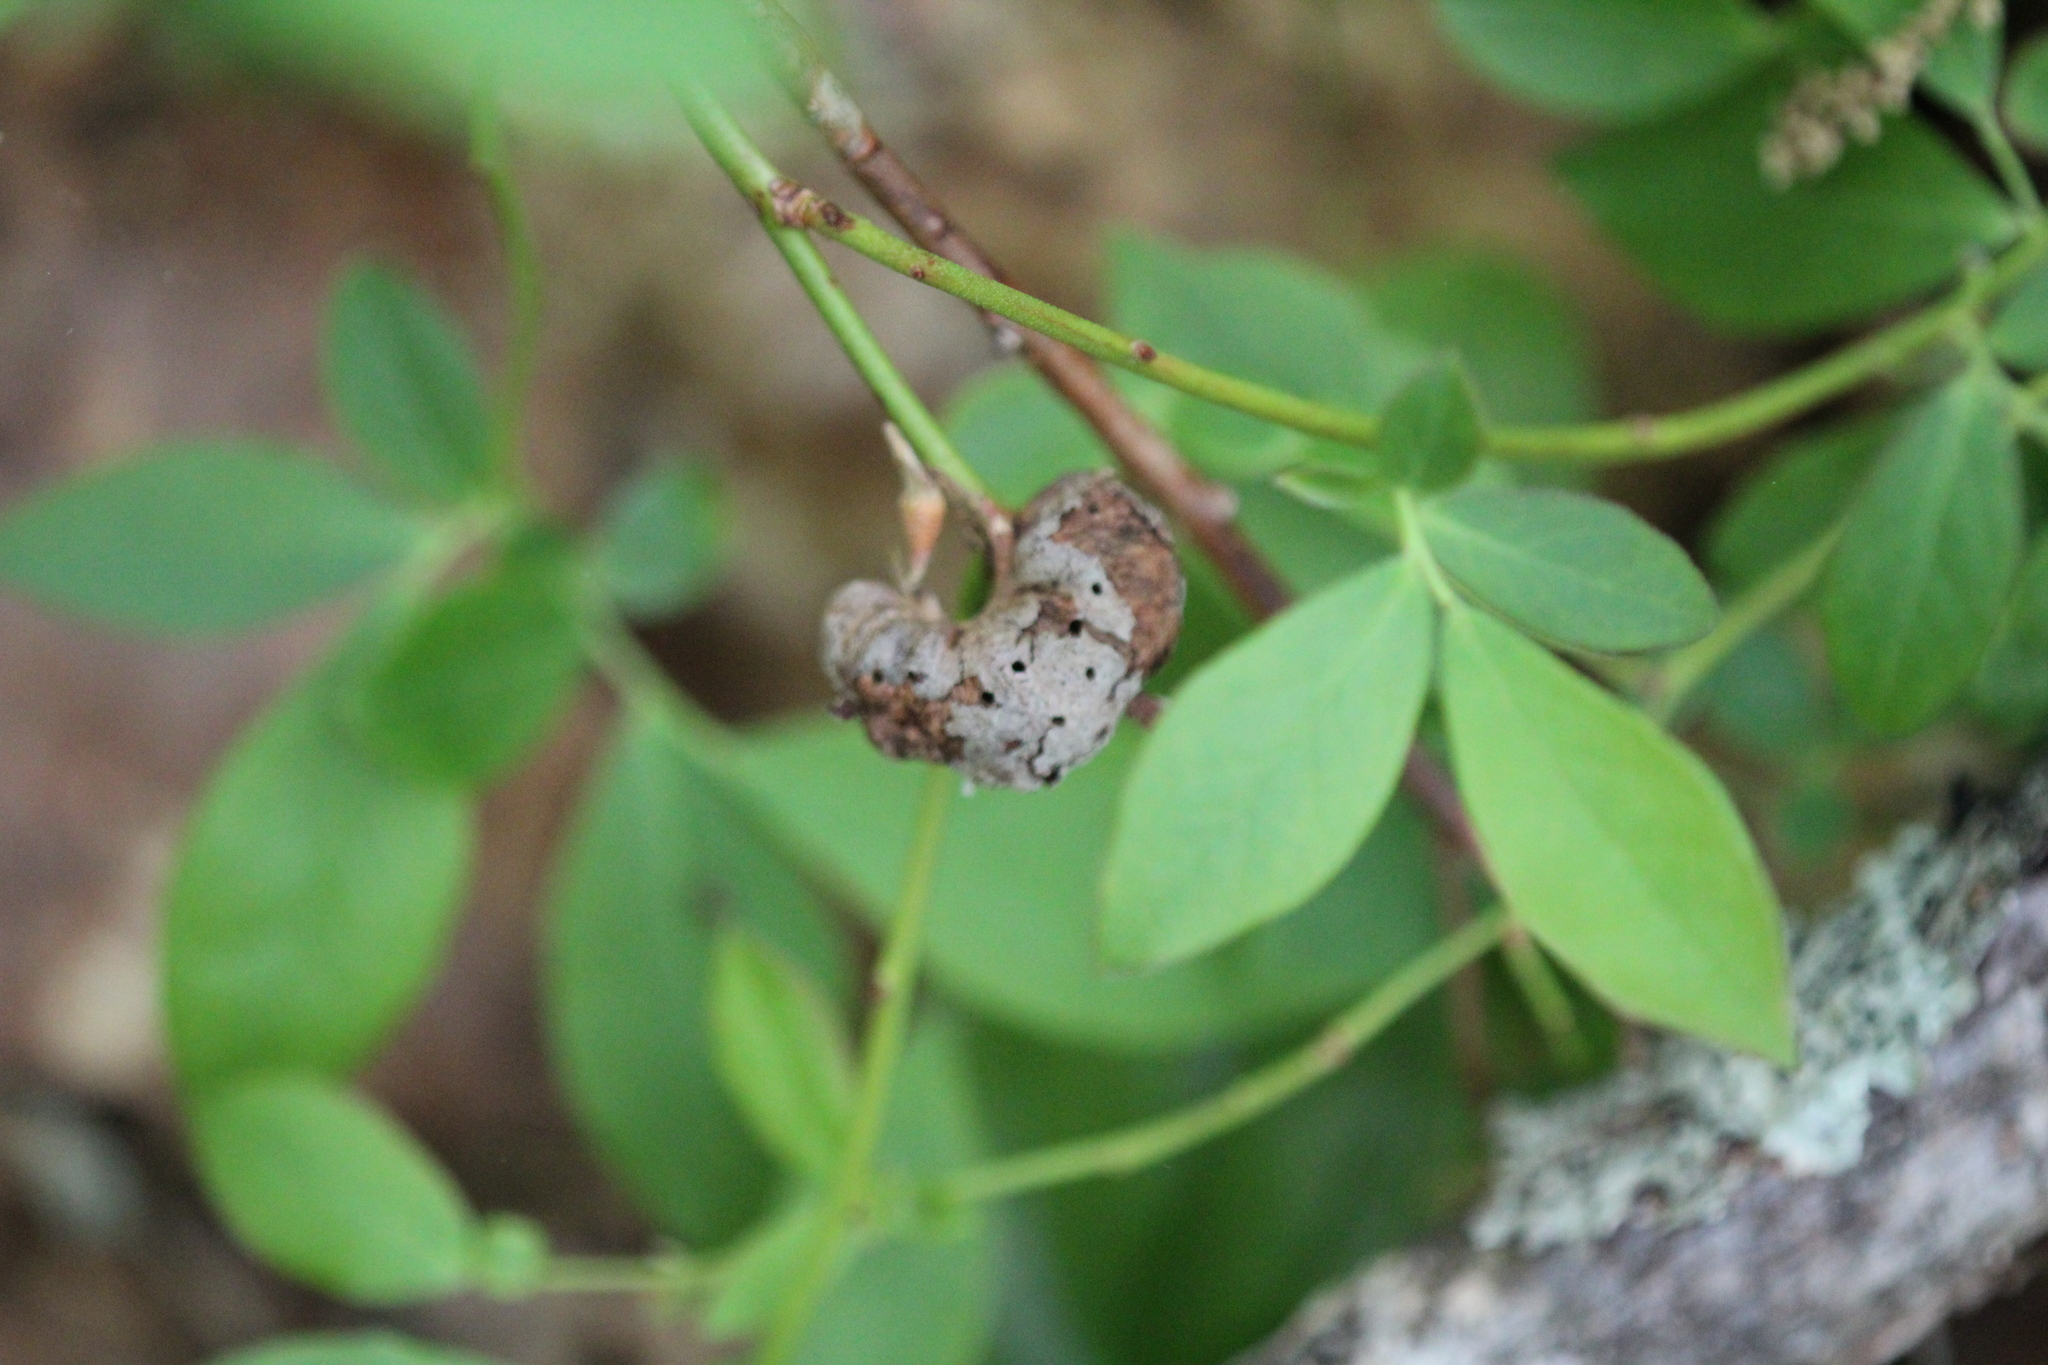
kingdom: Animalia
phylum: Arthropoda
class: Insecta
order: Hymenoptera
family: Pteromalidae
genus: Hemadas
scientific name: Hemadas nubilipennis
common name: Blueberry stem gall wasp
